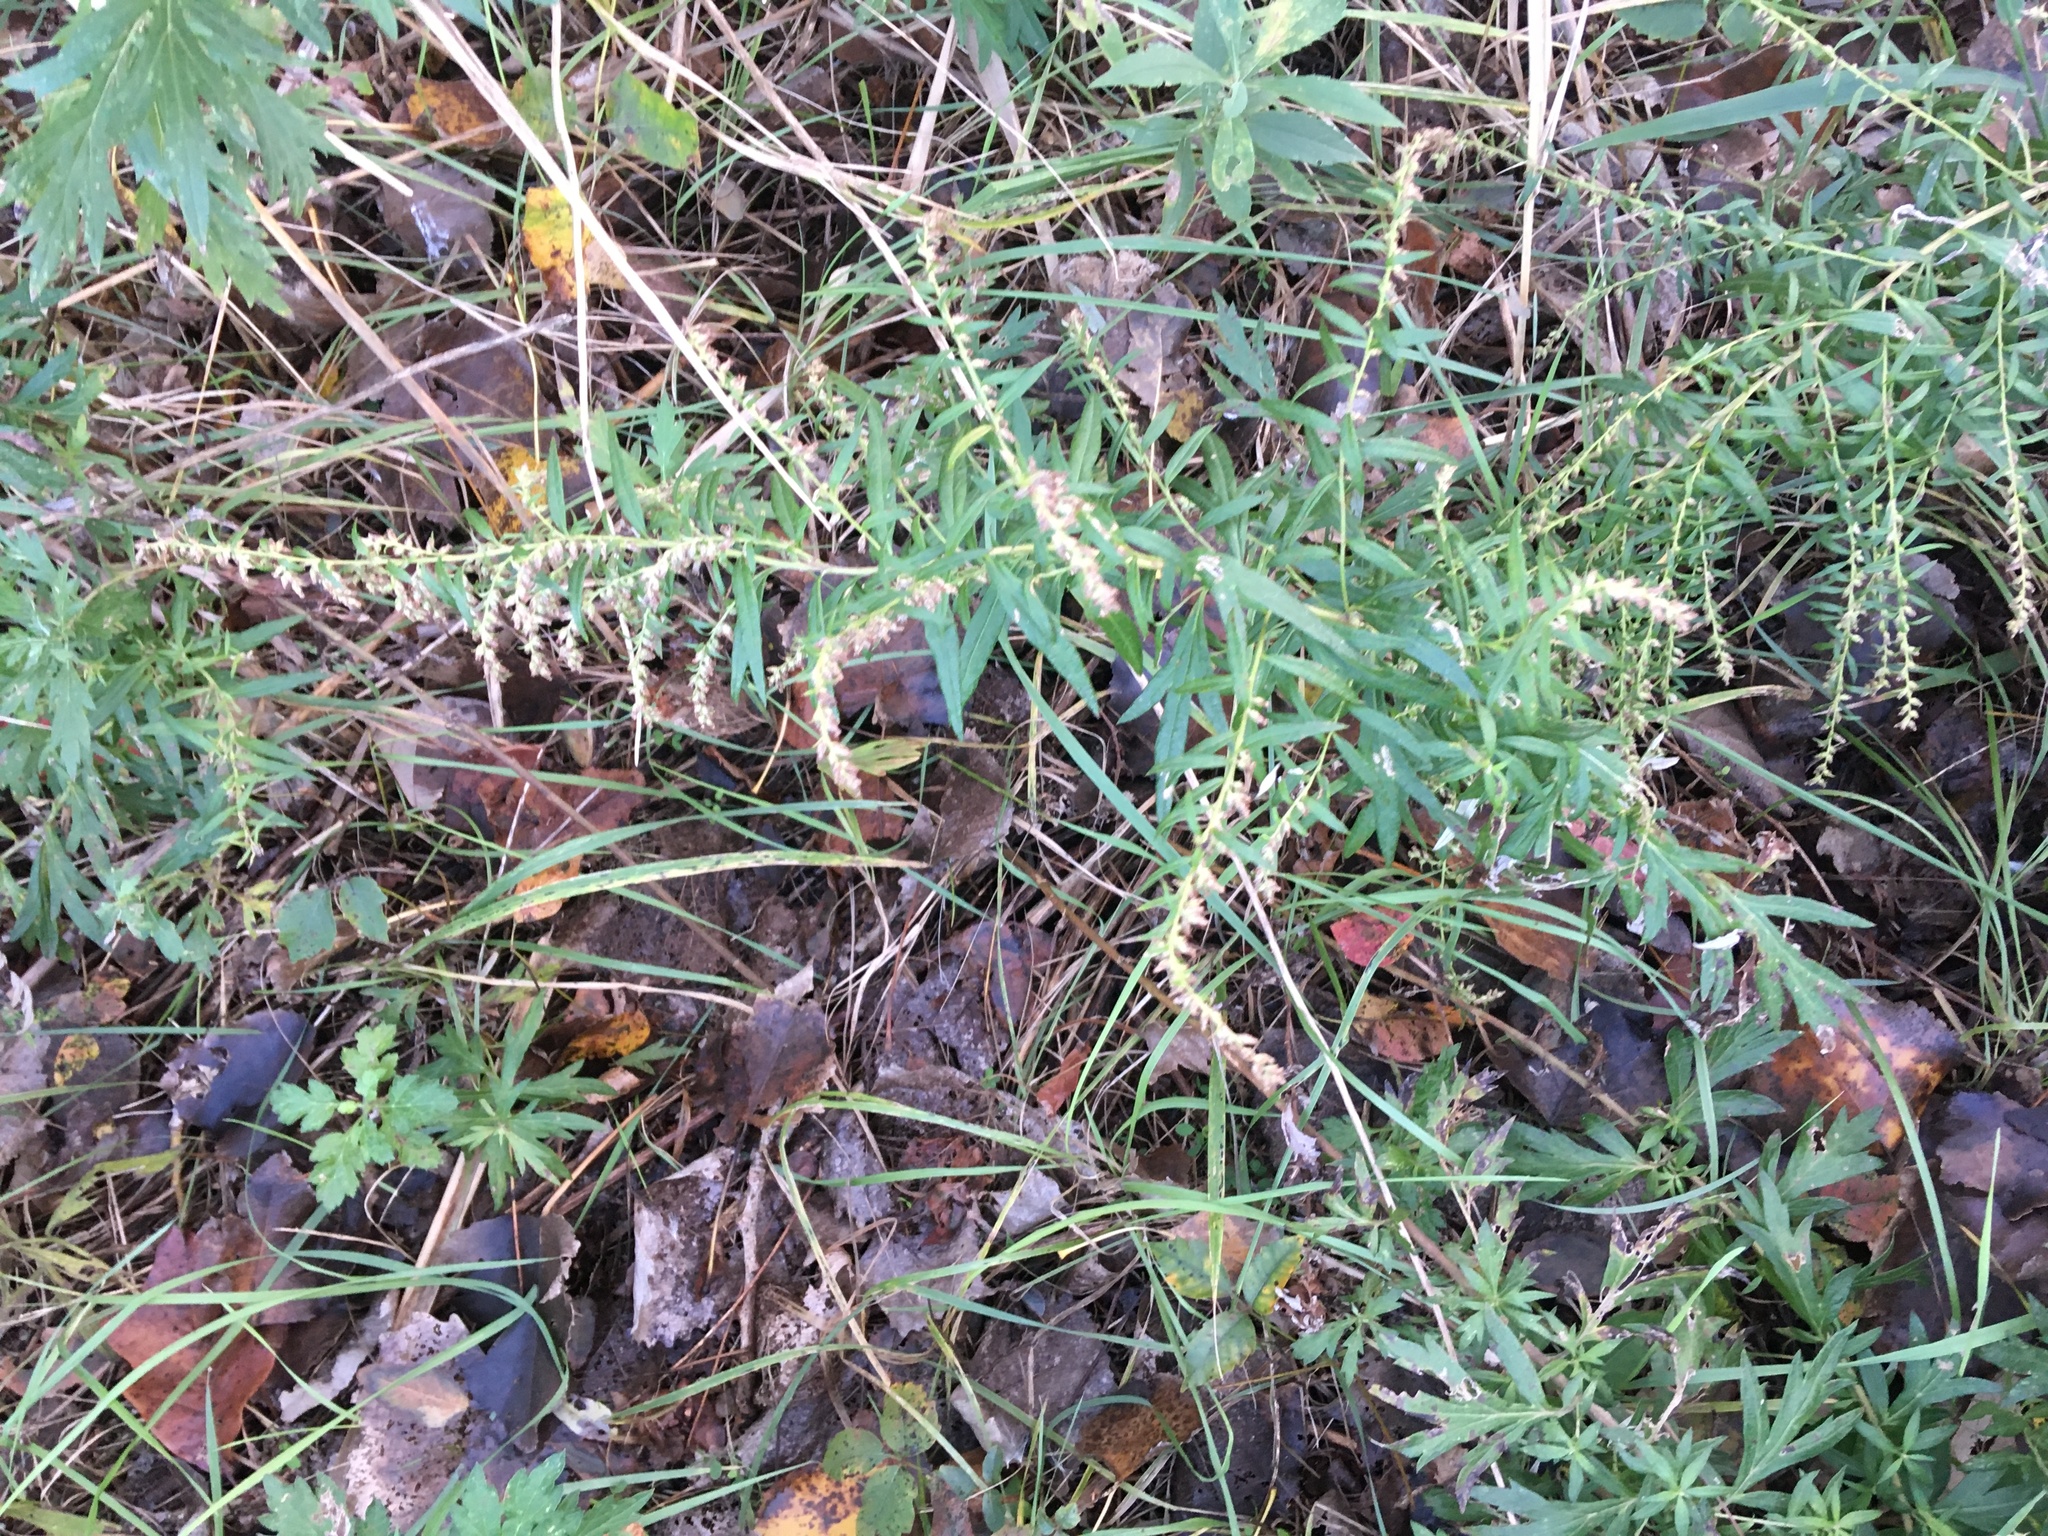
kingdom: Plantae
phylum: Tracheophyta
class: Magnoliopsida
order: Asterales
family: Asteraceae
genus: Artemisia
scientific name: Artemisia vulgaris
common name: Mugwort
